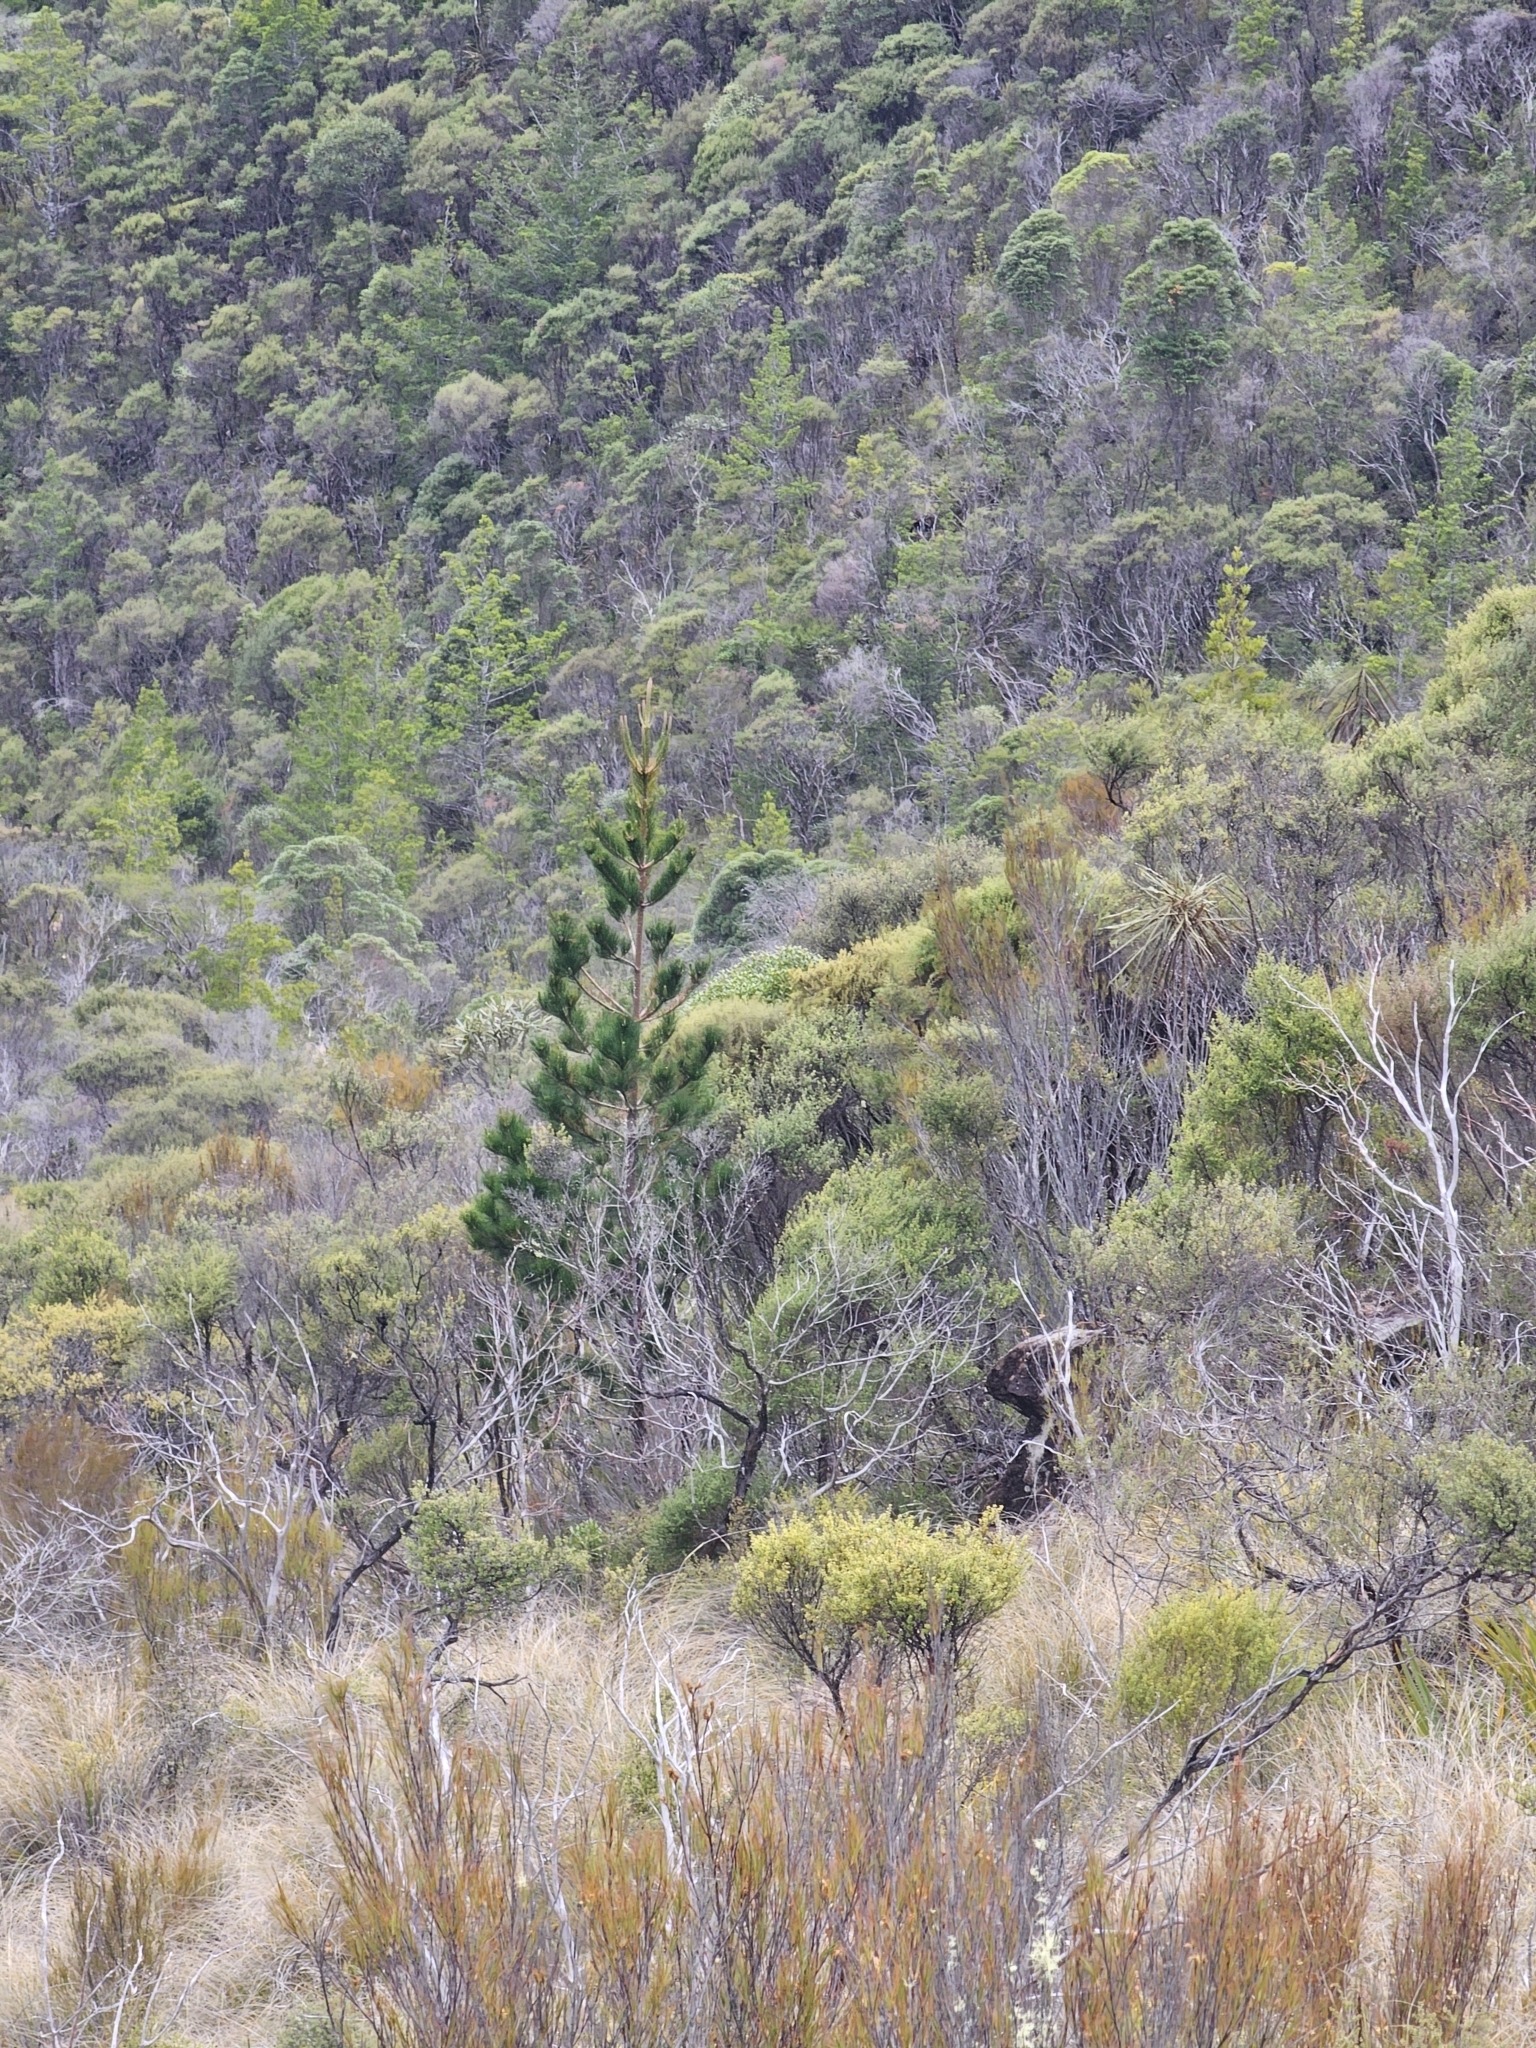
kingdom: Plantae
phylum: Tracheophyta
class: Pinopsida
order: Pinales
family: Pinaceae
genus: Pinus
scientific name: Pinus radiata
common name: Monterey pine
